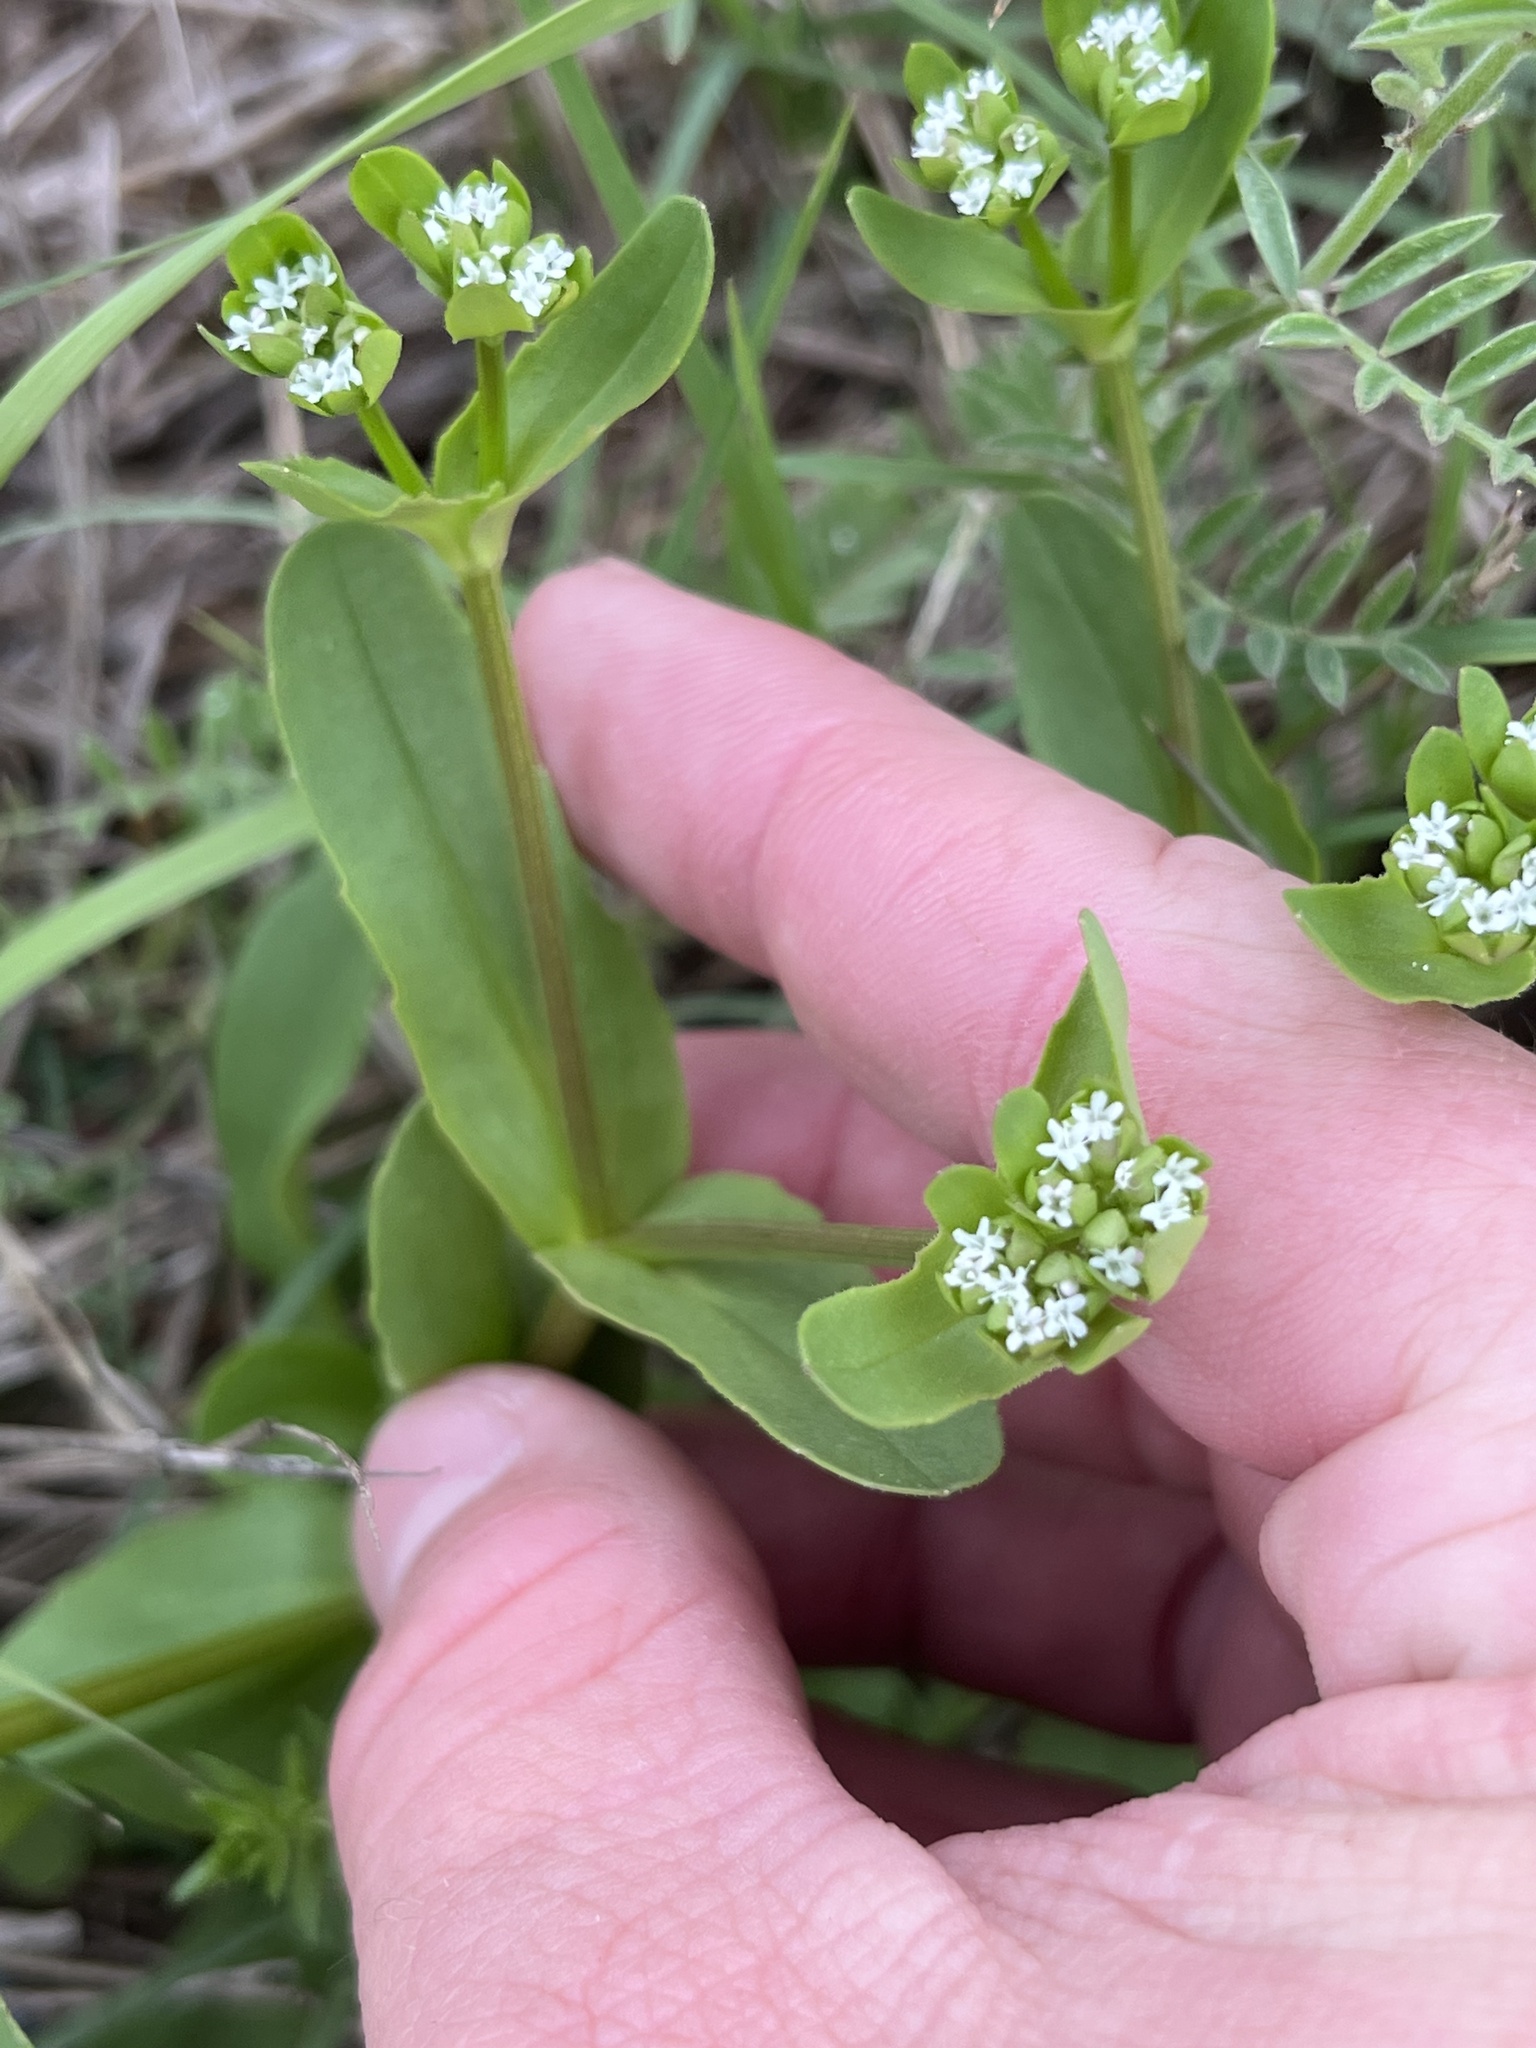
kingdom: Plantae
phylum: Tracheophyta
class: Magnoliopsida
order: Dipsacales
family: Caprifoliaceae
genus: Valerianella
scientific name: Valerianella radiata
